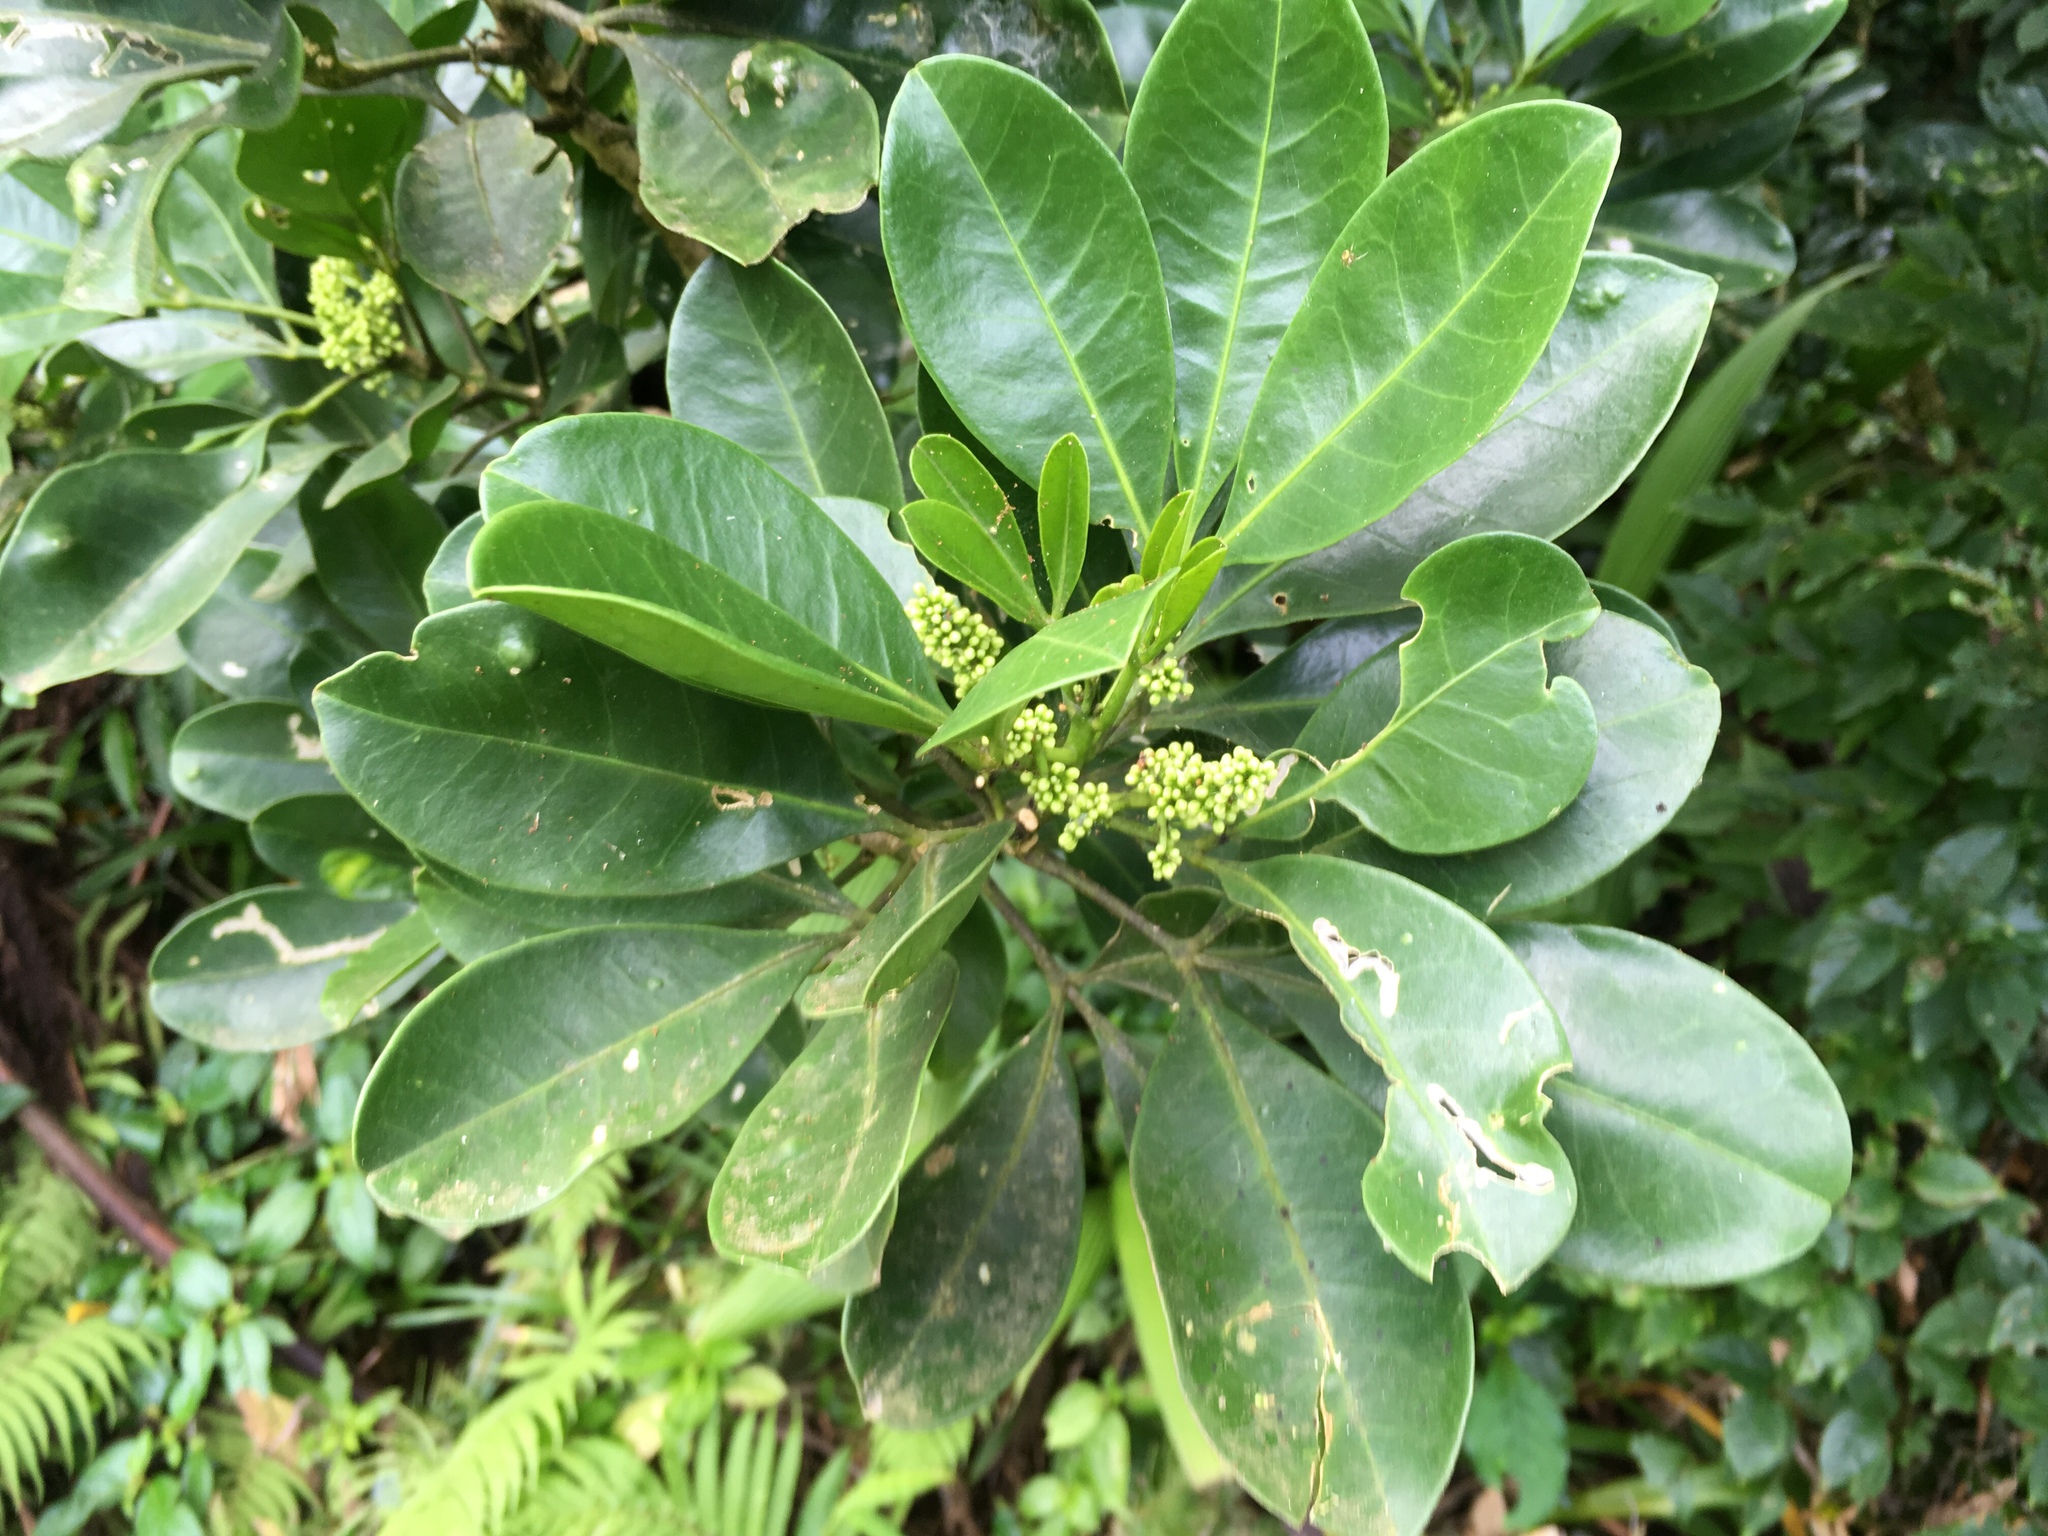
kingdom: Plantae
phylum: Tracheophyta
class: Magnoliopsida
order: Sapindales
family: Rutaceae
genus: Melicope
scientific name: Melicope triphylla
